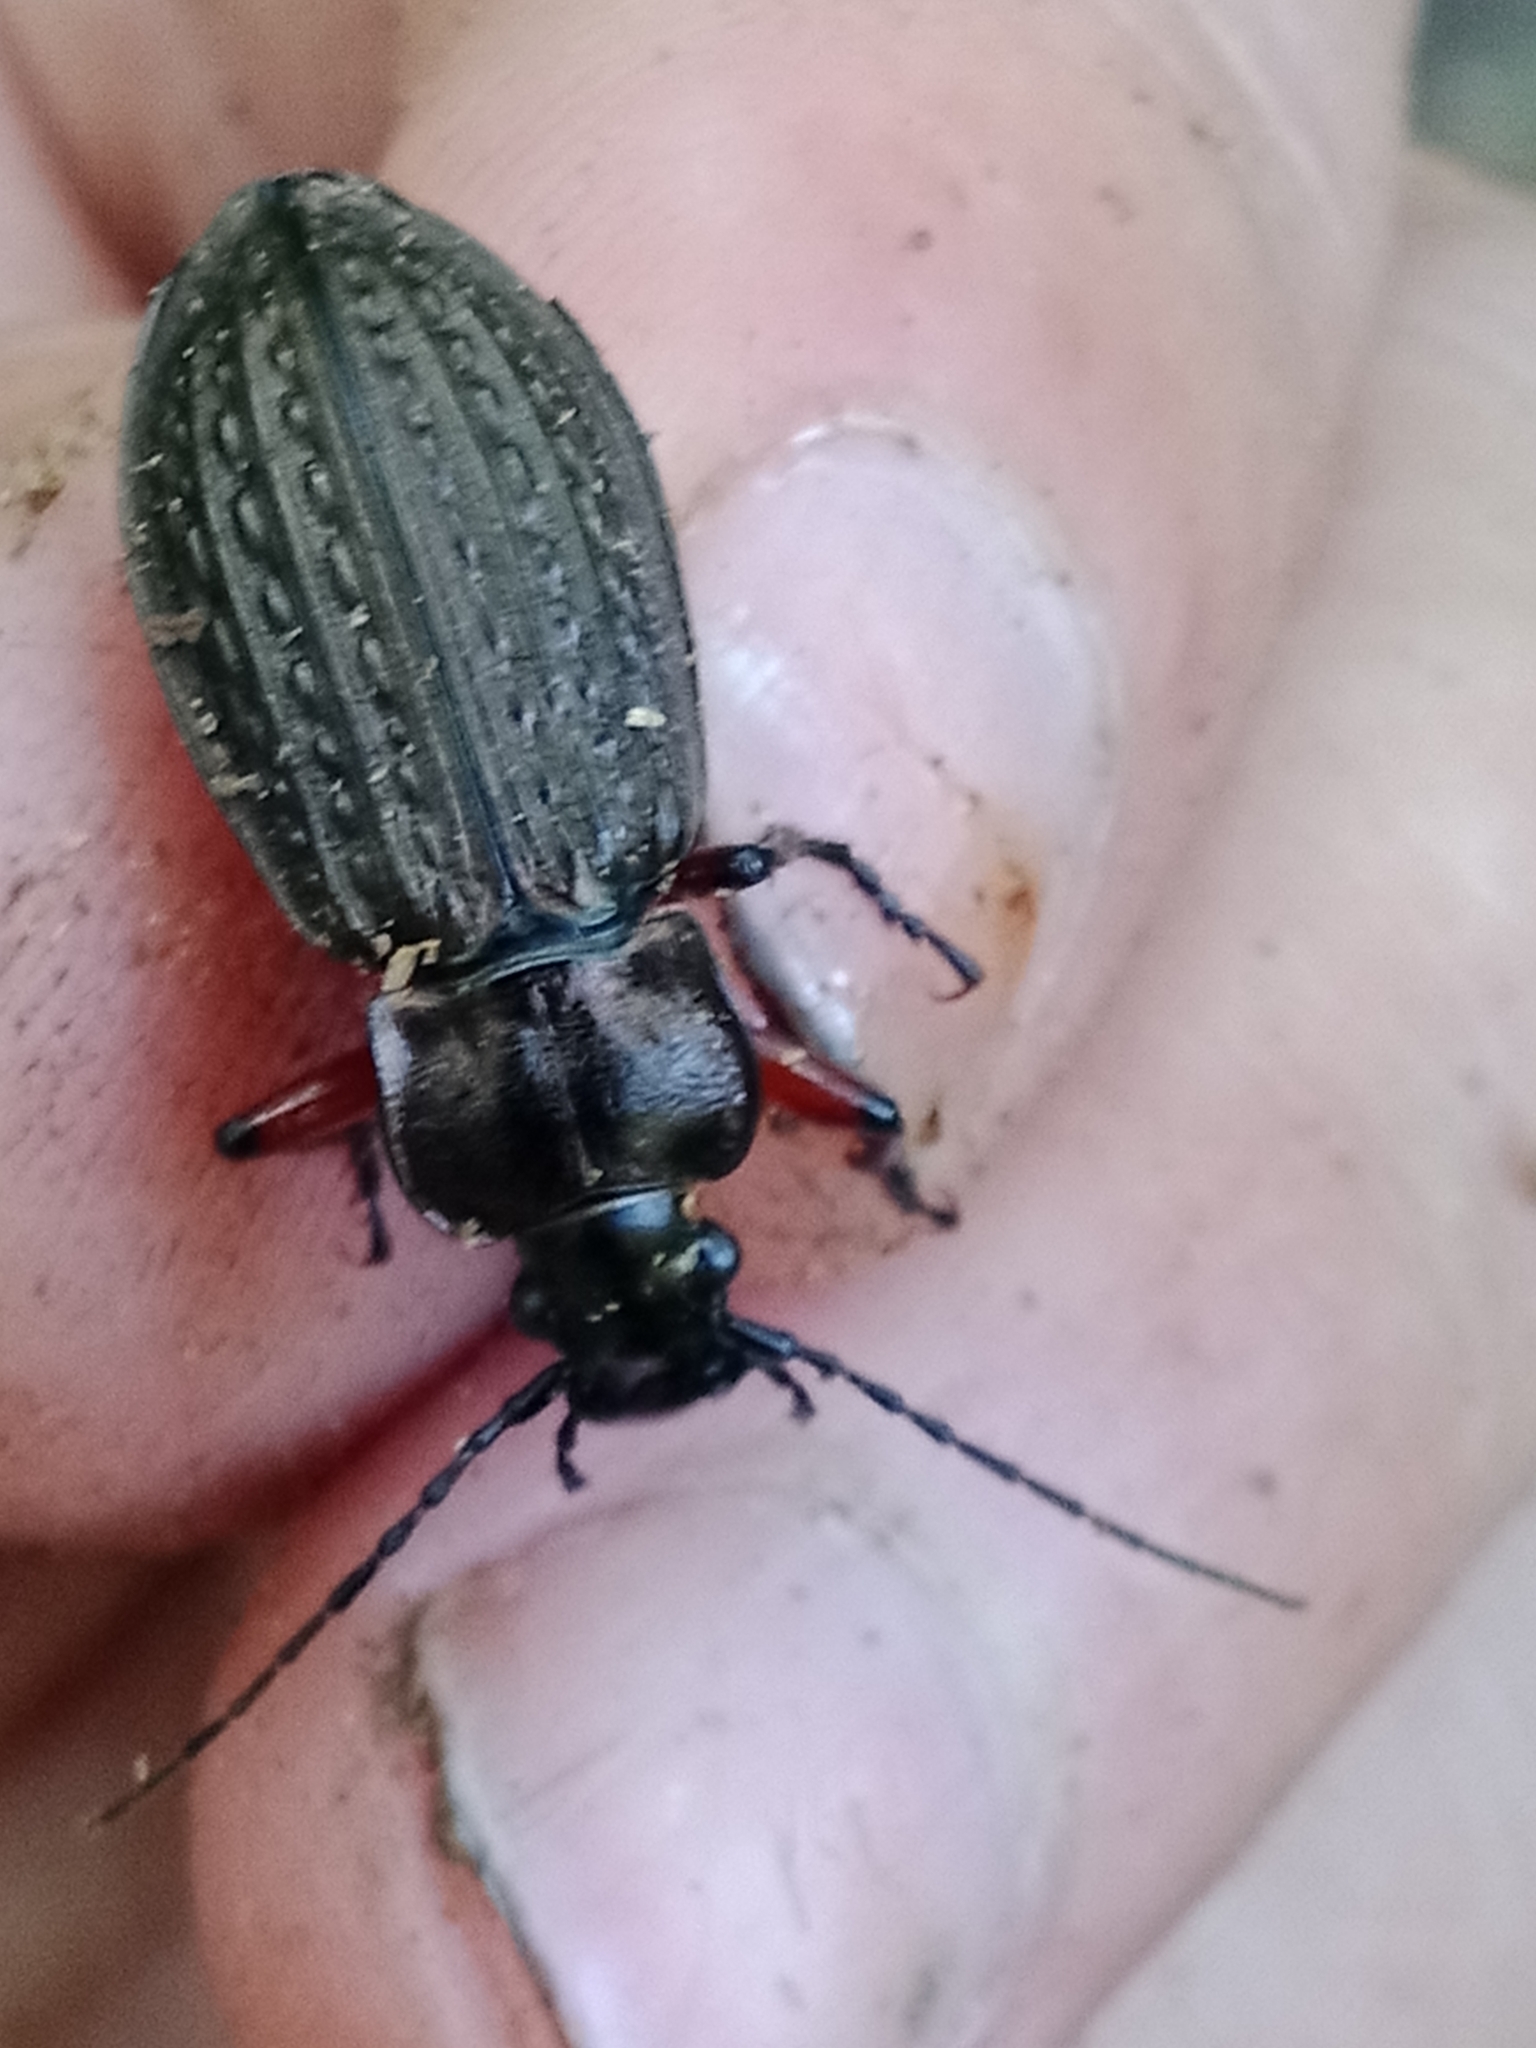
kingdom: Animalia
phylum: Arthropoda
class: Insecta
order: Coleoptera
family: Carabidae
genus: Carabus
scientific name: Carabus granulatus
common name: Granulate ground beetle
